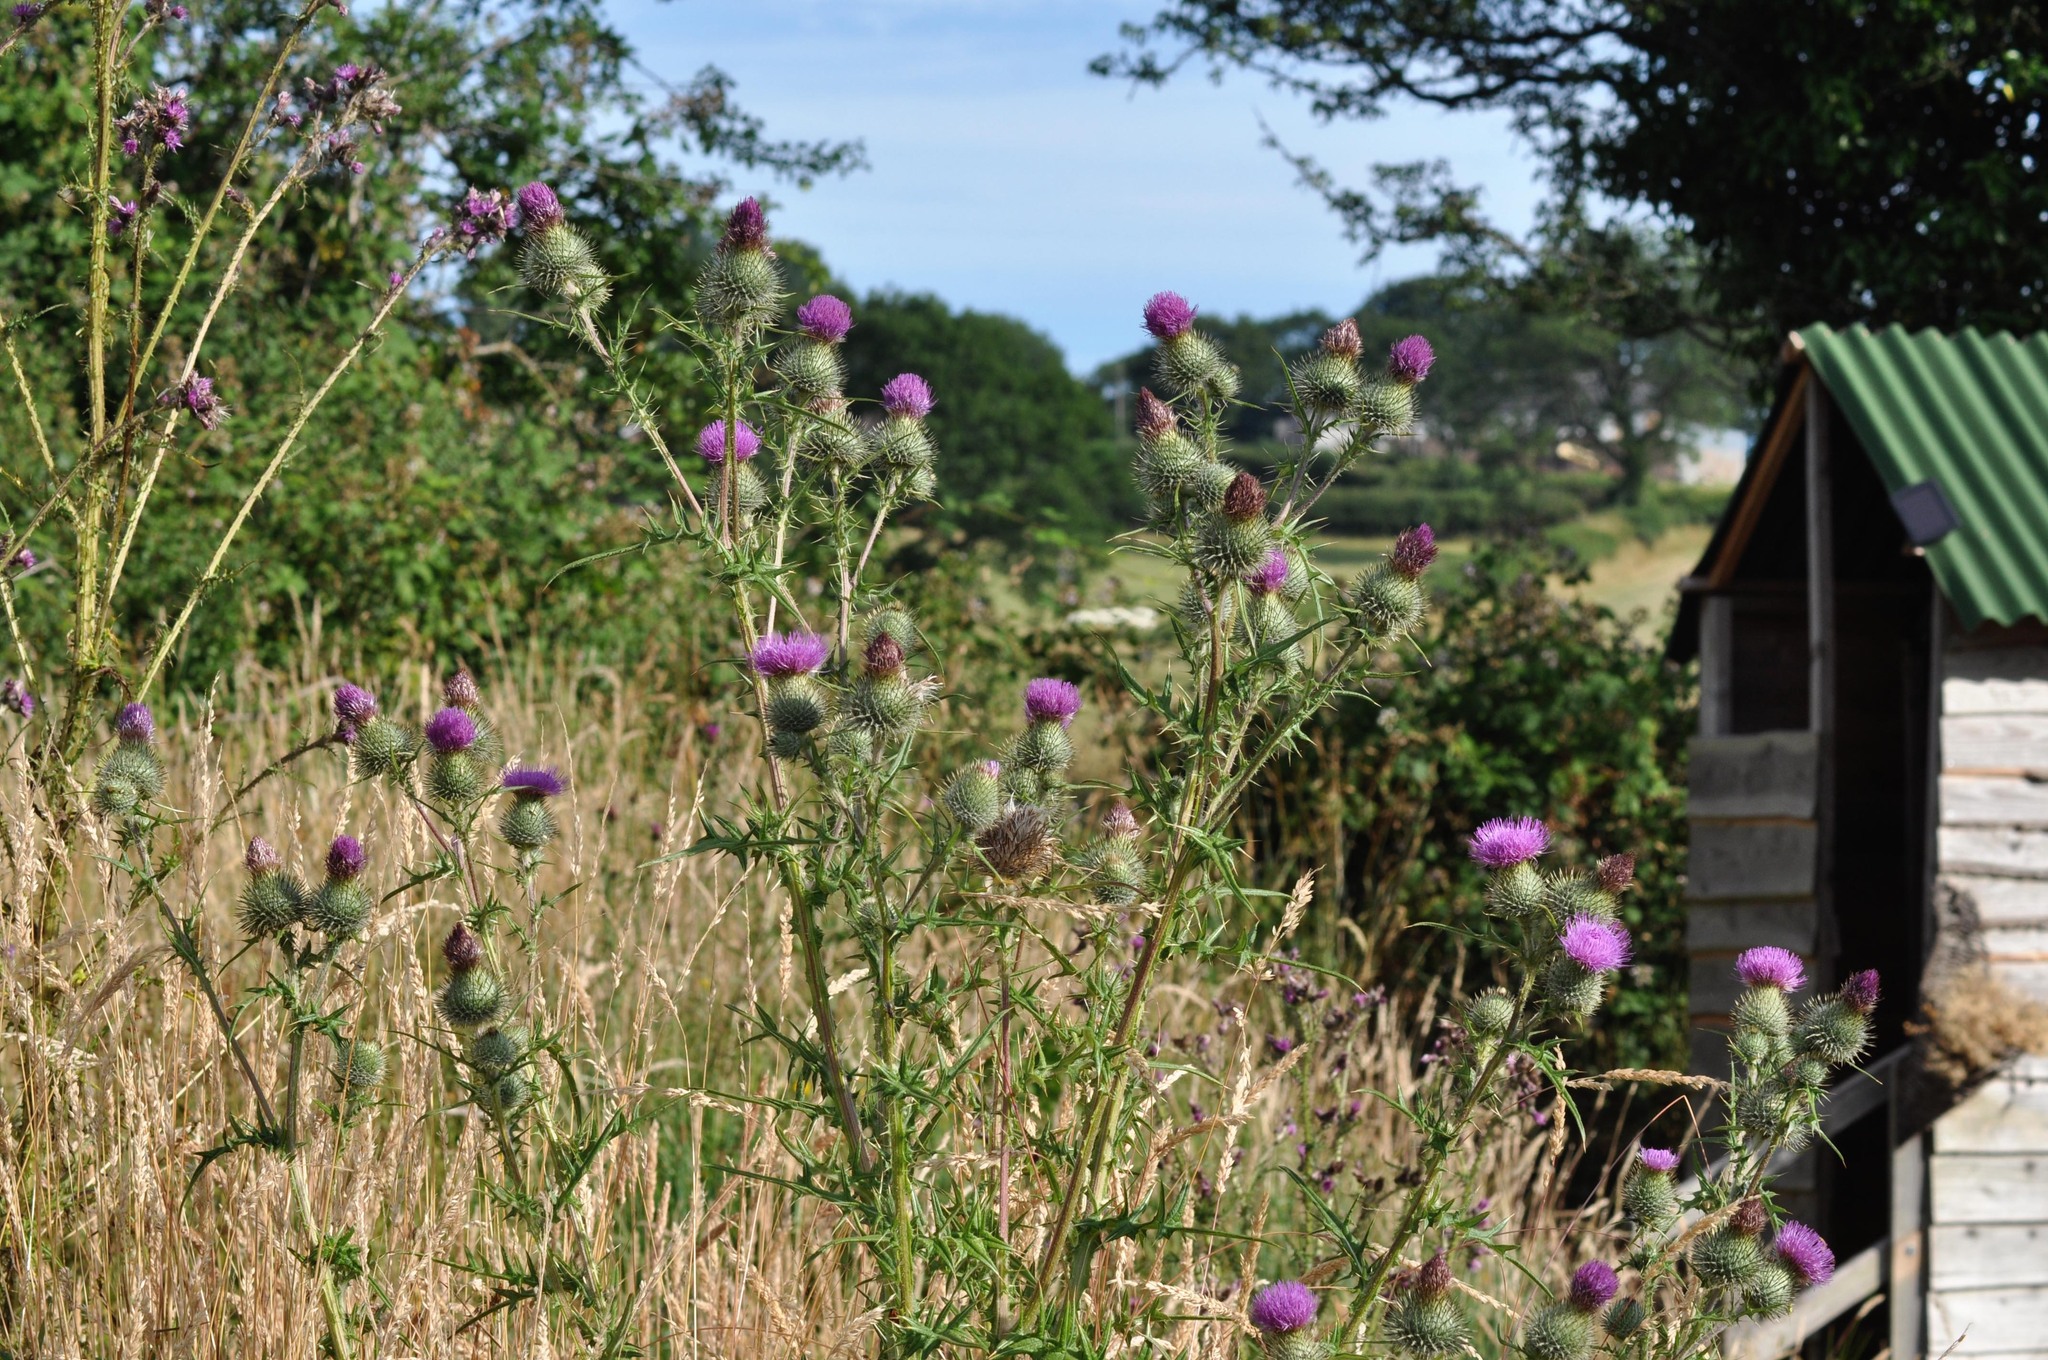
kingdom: Plantae
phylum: Tracheophyta
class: Magnoliopsida
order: Asterales
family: Asteraceae
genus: Cirsium
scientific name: Cirsium vulgare
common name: Bull thistle
